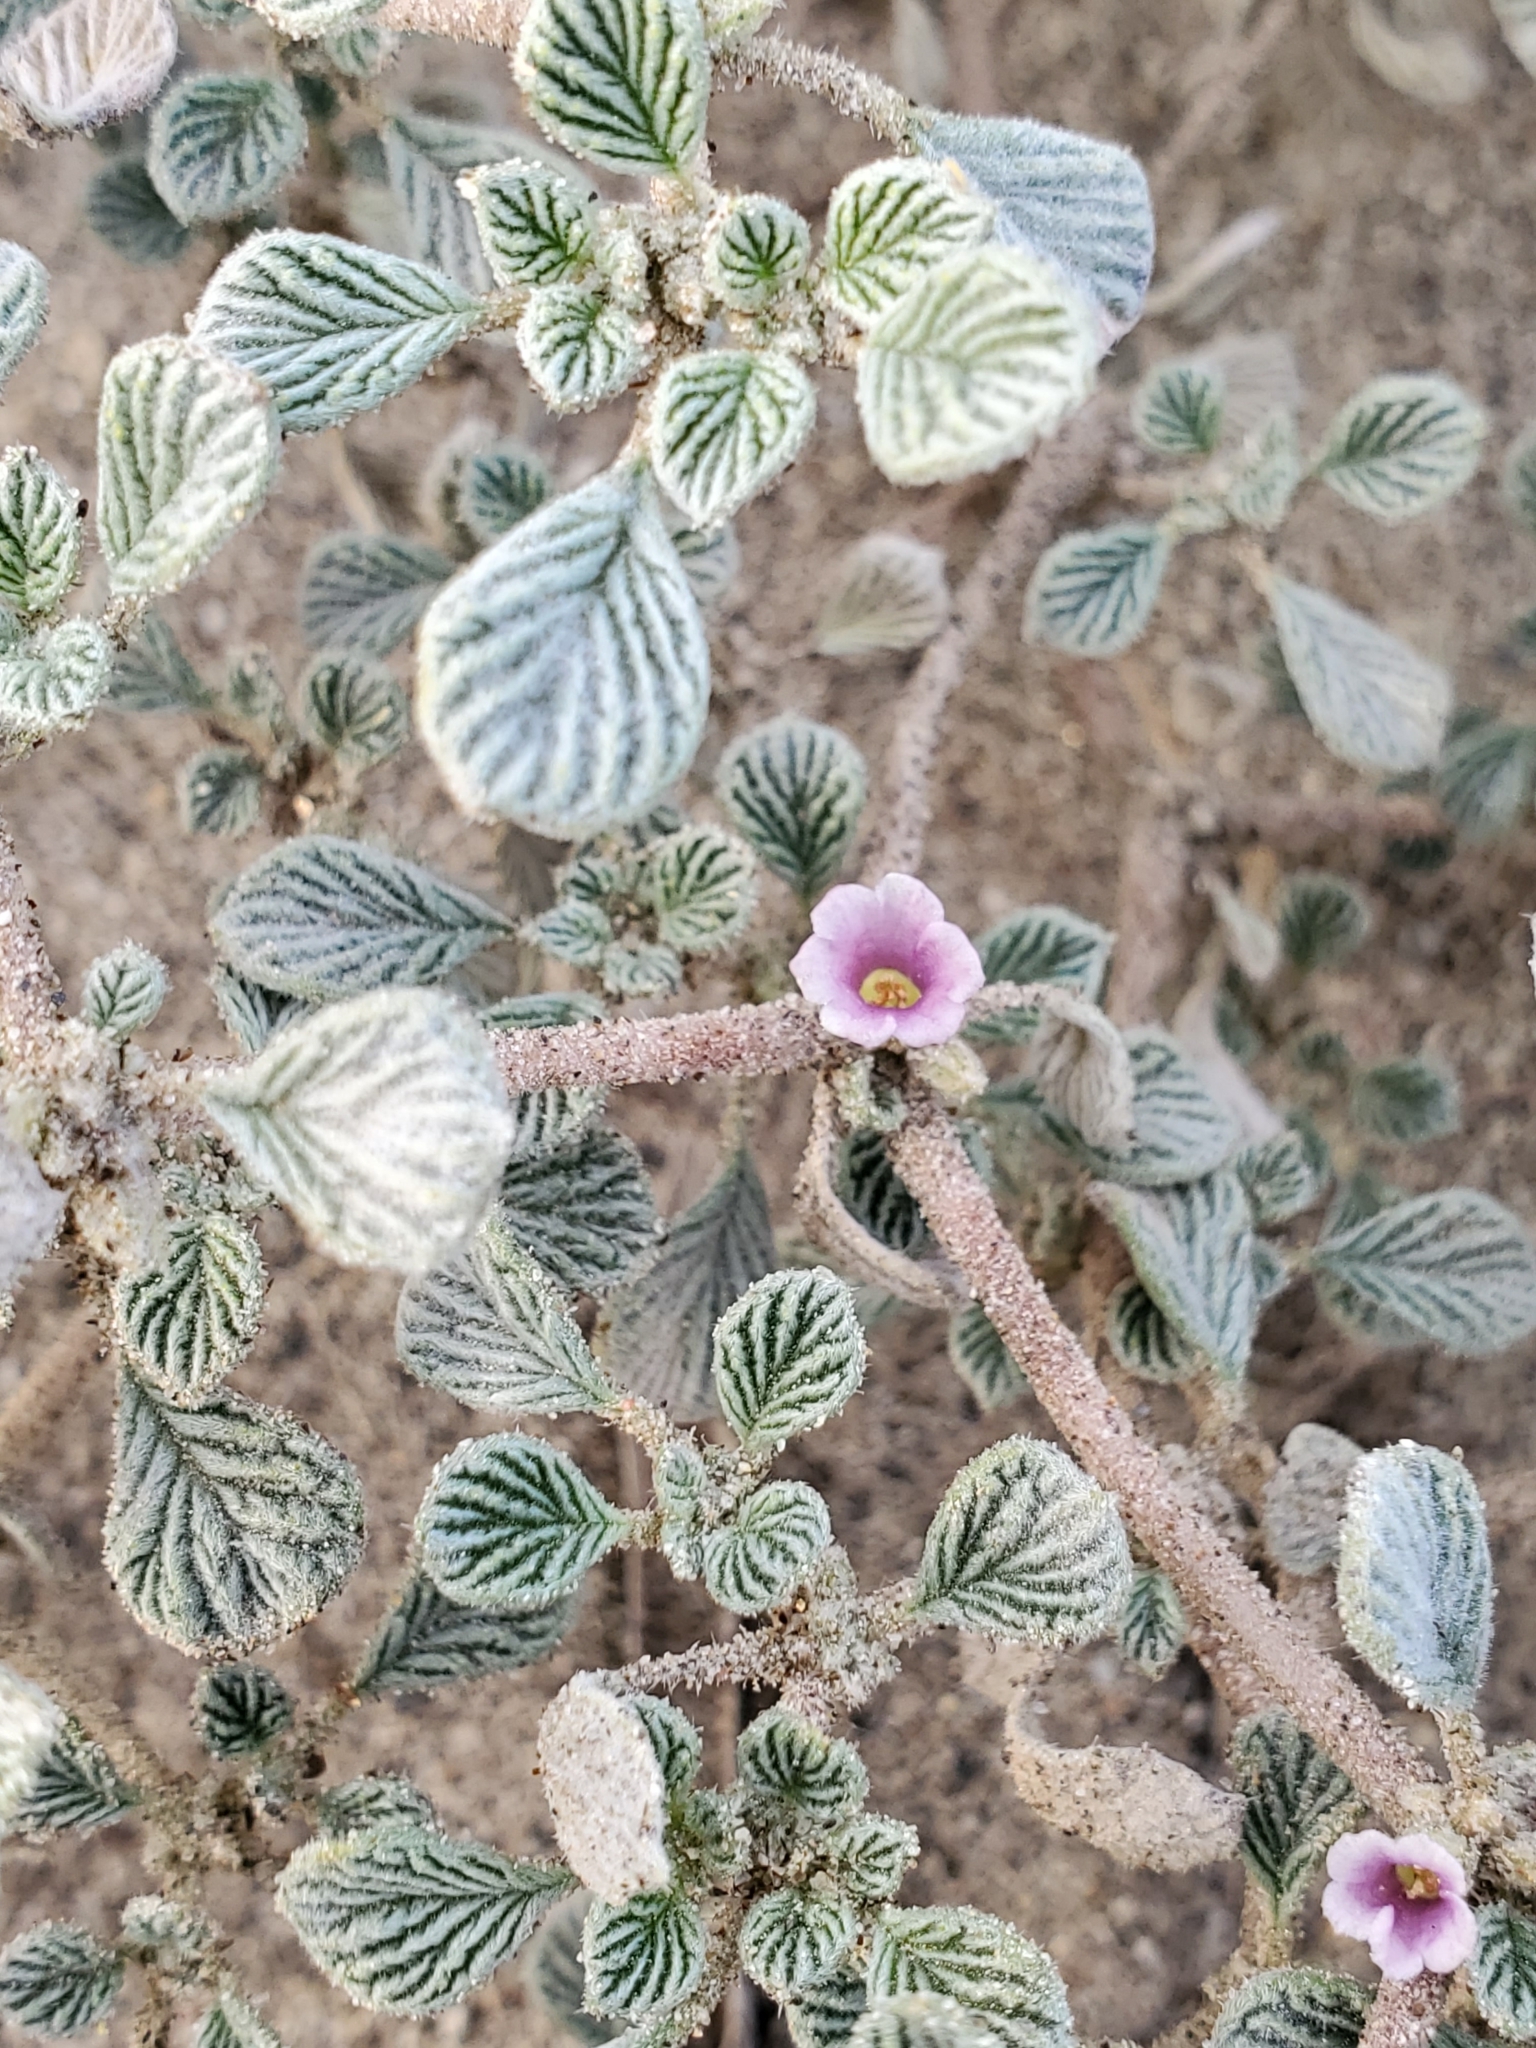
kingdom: Plantae
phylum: Tracheophyta
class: Magnoliopsida
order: Boraginales
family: Ehretiaceae
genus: Tiquilia
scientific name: Tiquilia plicata
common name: Fan-leaf tiquilia
